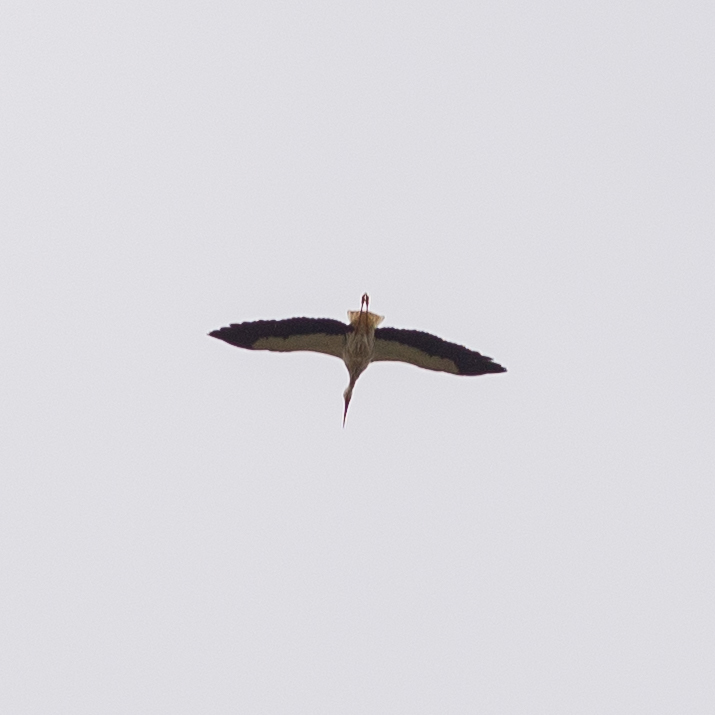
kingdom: Animalia
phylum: Chordata
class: Aves
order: Ciconiiformes
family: Ciconiidae
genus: Ciconia
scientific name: Ciconia ciconia
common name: White stork
